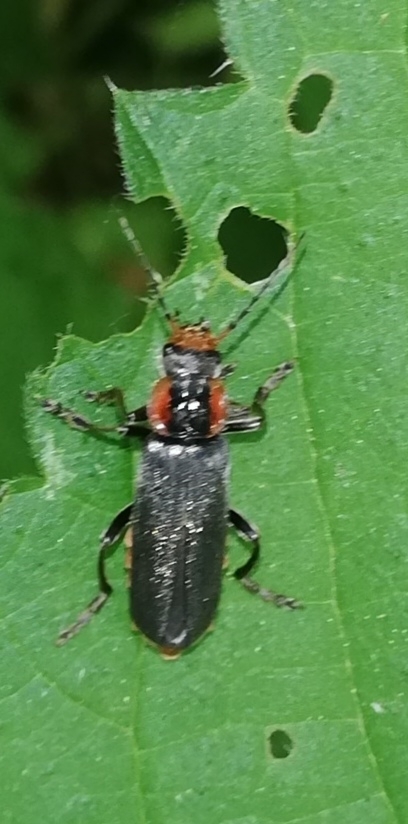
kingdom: Animalia
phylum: Arthropoda
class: Insecta
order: Coleoptera
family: Cantharidae
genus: Cantharis
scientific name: Cantharis fusca
